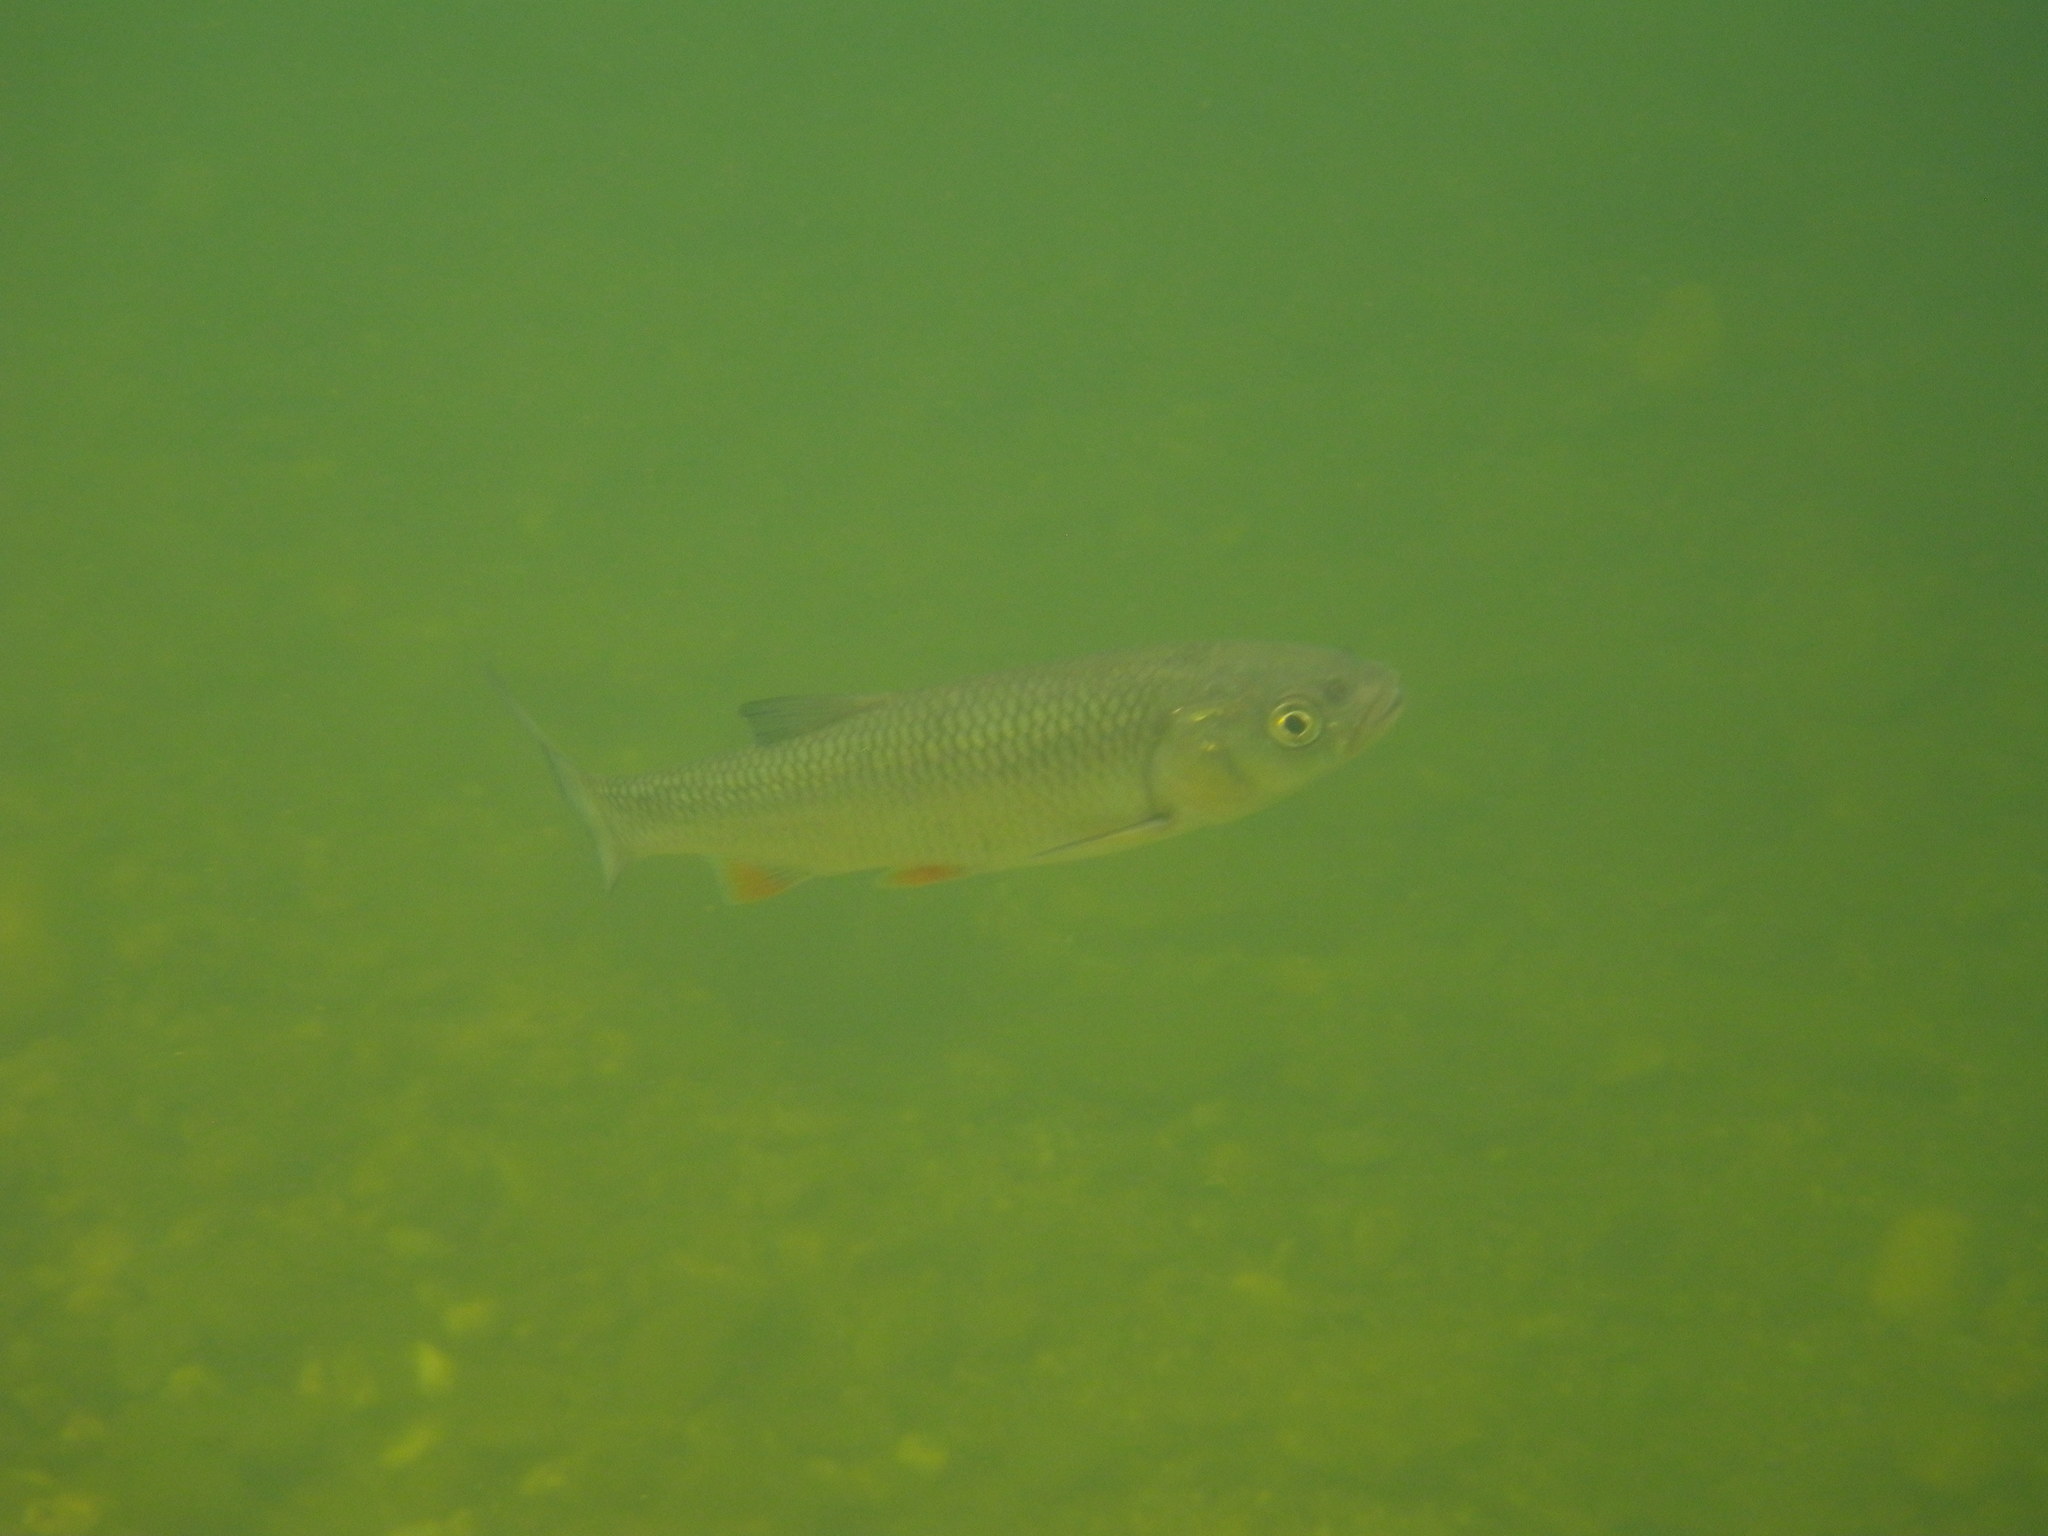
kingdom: Animalia
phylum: Chordata
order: Cypriniformes
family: Cyprinidae
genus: Squalius
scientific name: Squalius cephalus
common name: Chub
